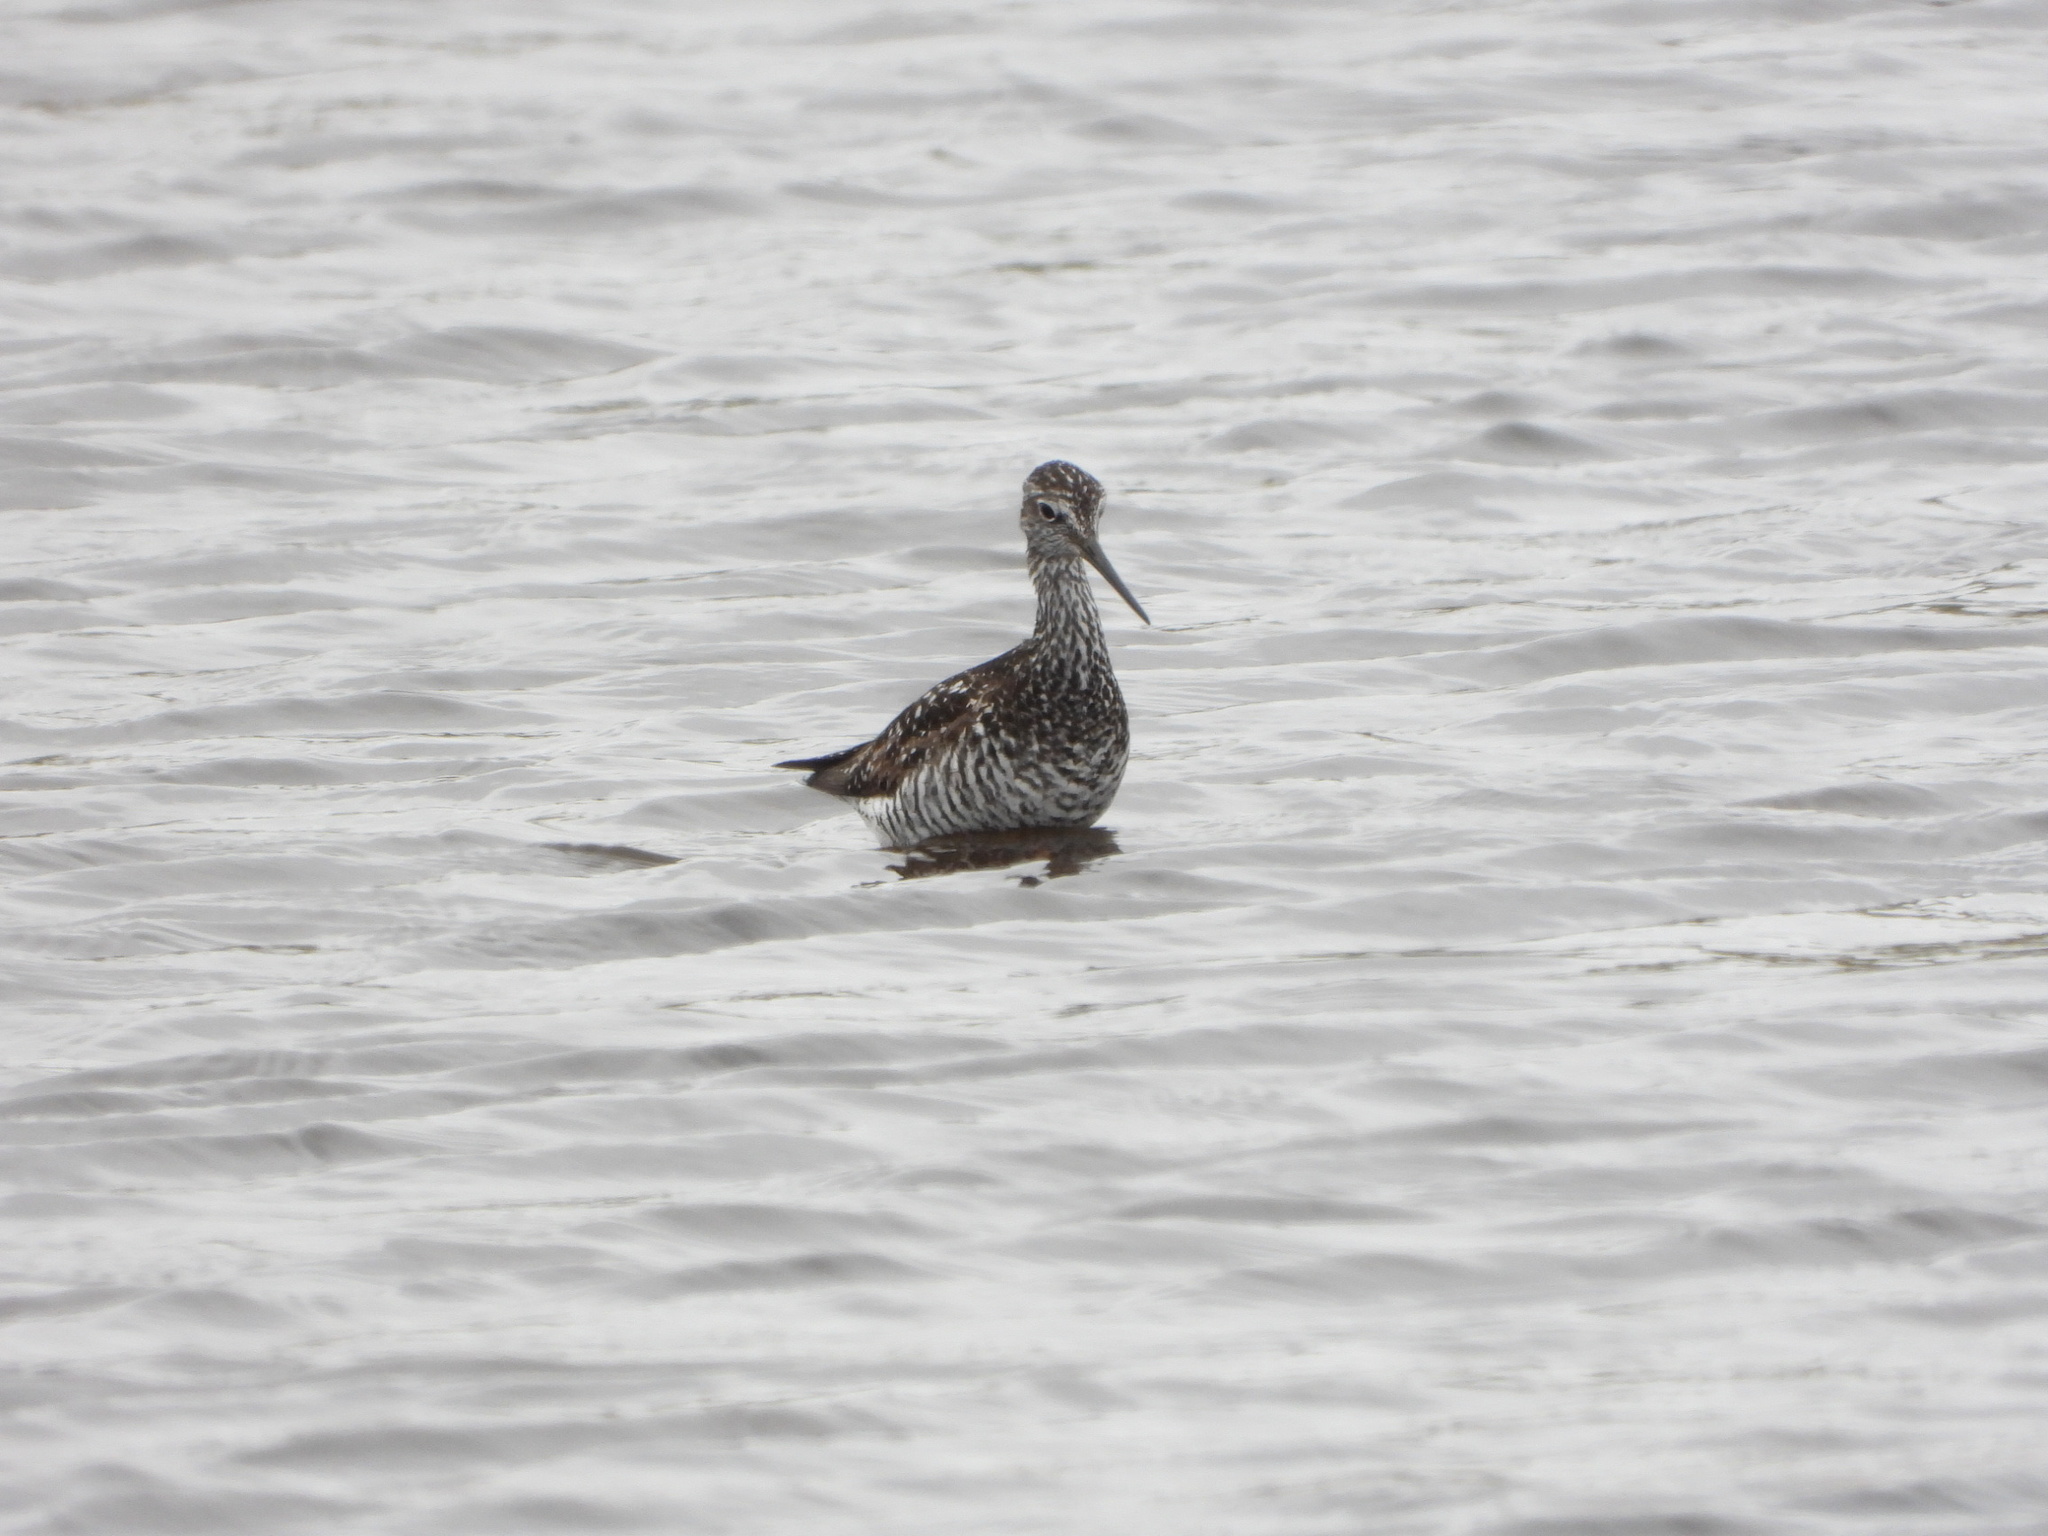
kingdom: Animalia
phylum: Chordata
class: Aves
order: Charadriiformes
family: Scolopacidae
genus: Tringa
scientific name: Tringa melanoleuca
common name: Greater yellowlegs
